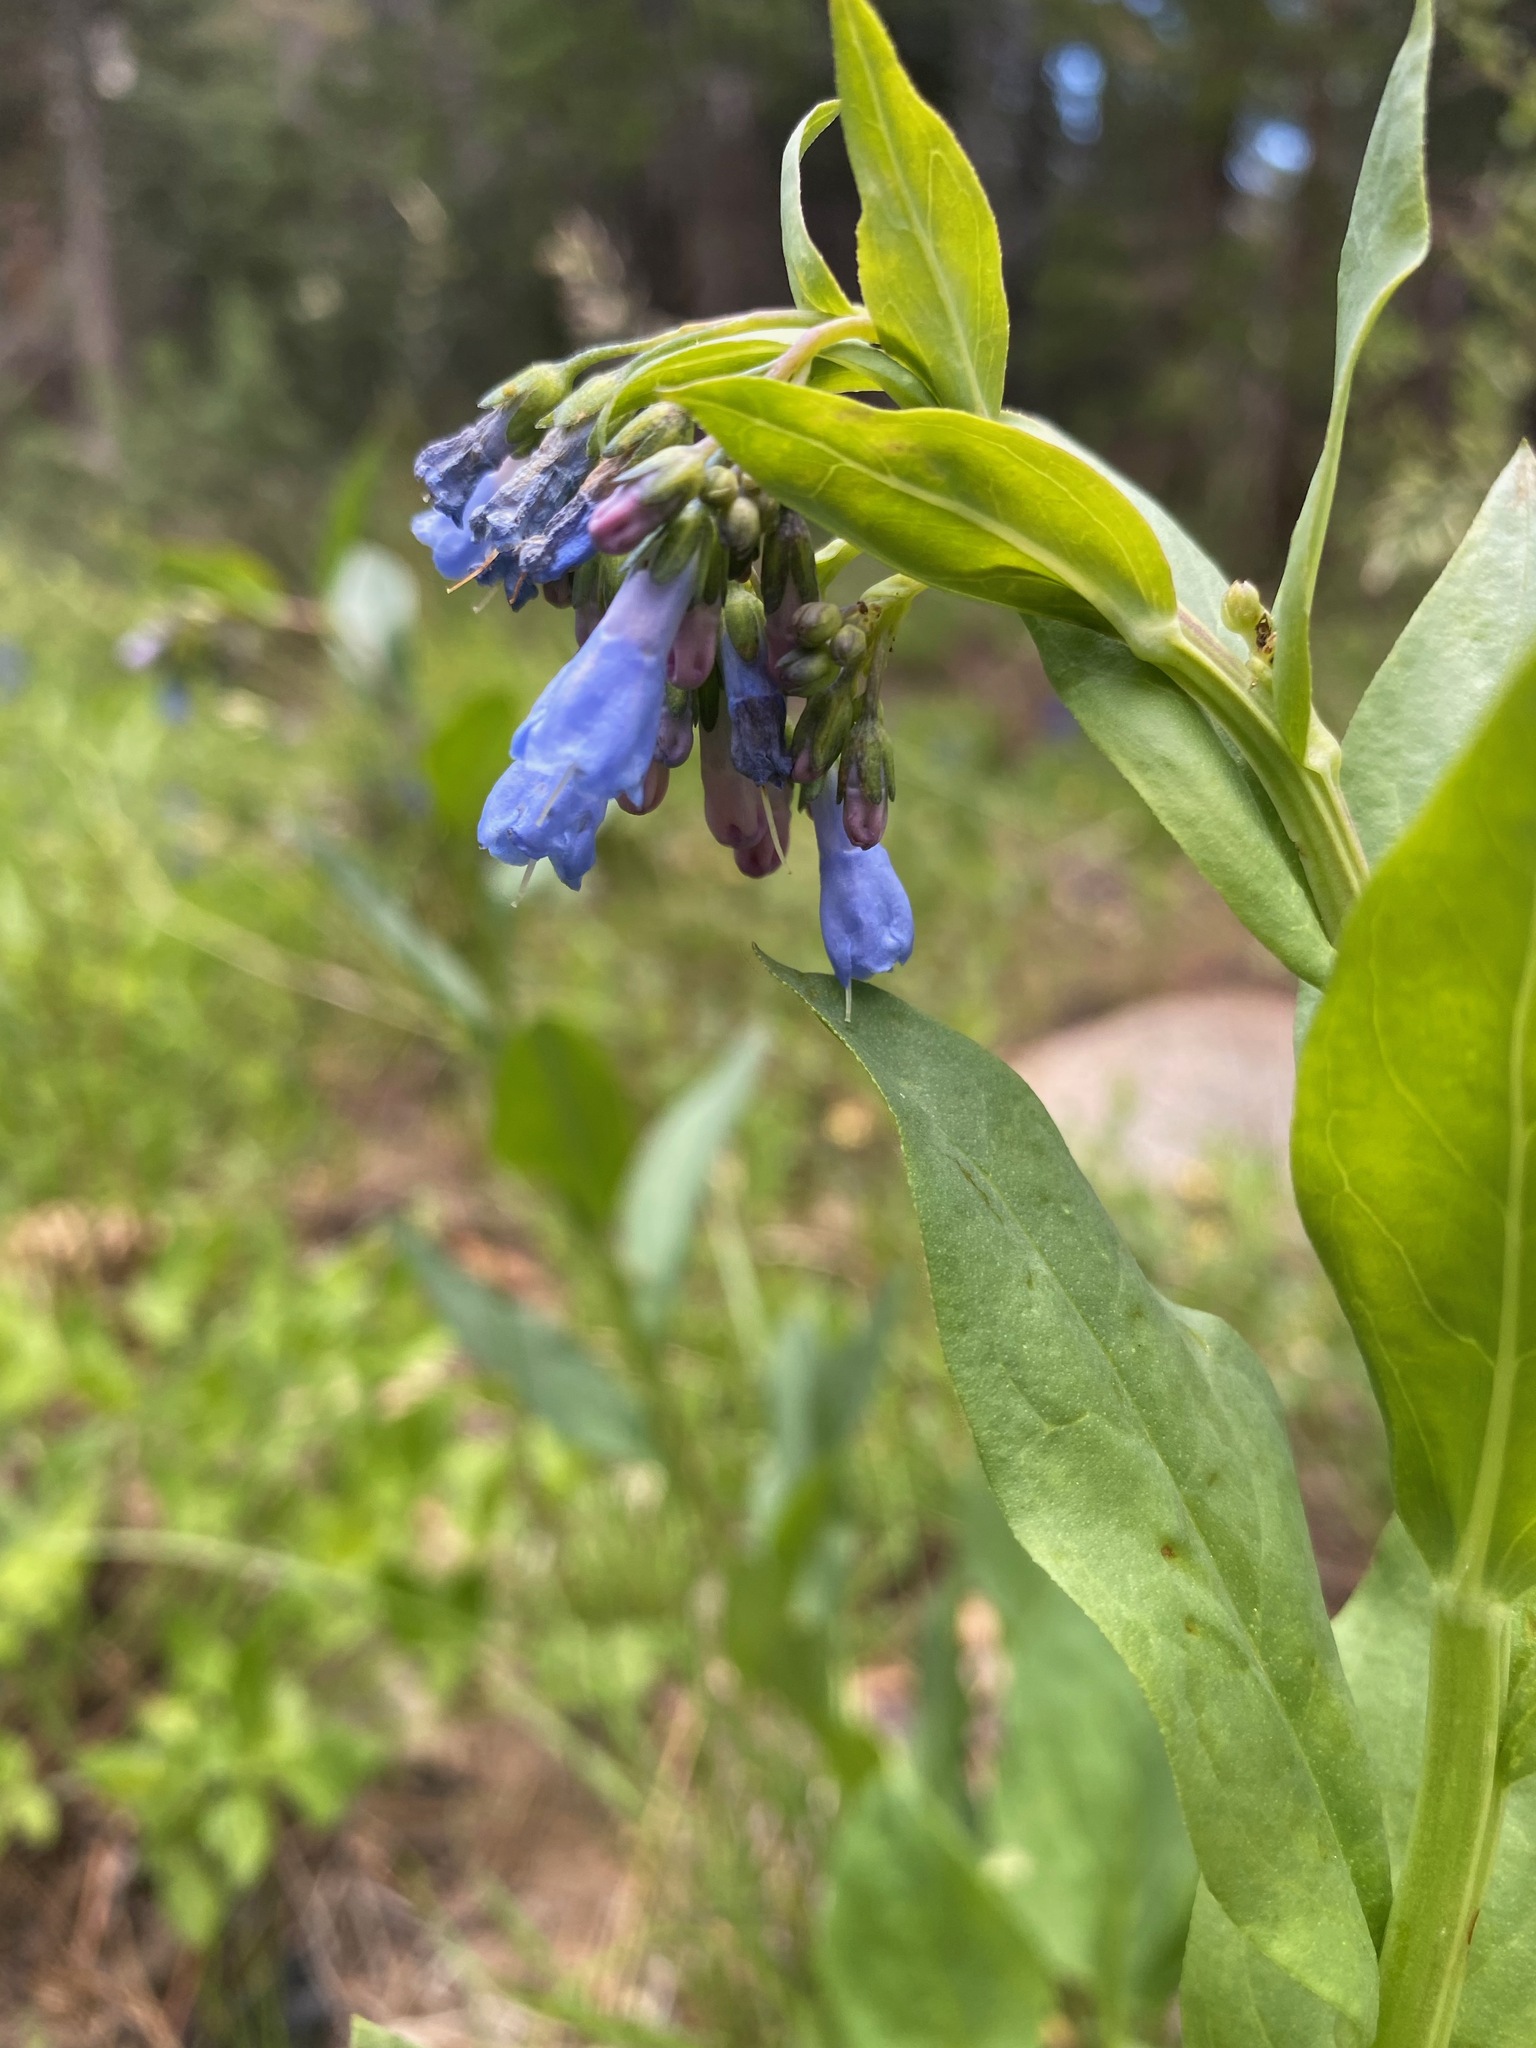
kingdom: Plantae
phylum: Tracheophyta
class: Magnoliopsida
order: Boraginales
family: Boraginaceae
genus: Mertensia
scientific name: Mertensia ciliata
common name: Tall chiming-bells
